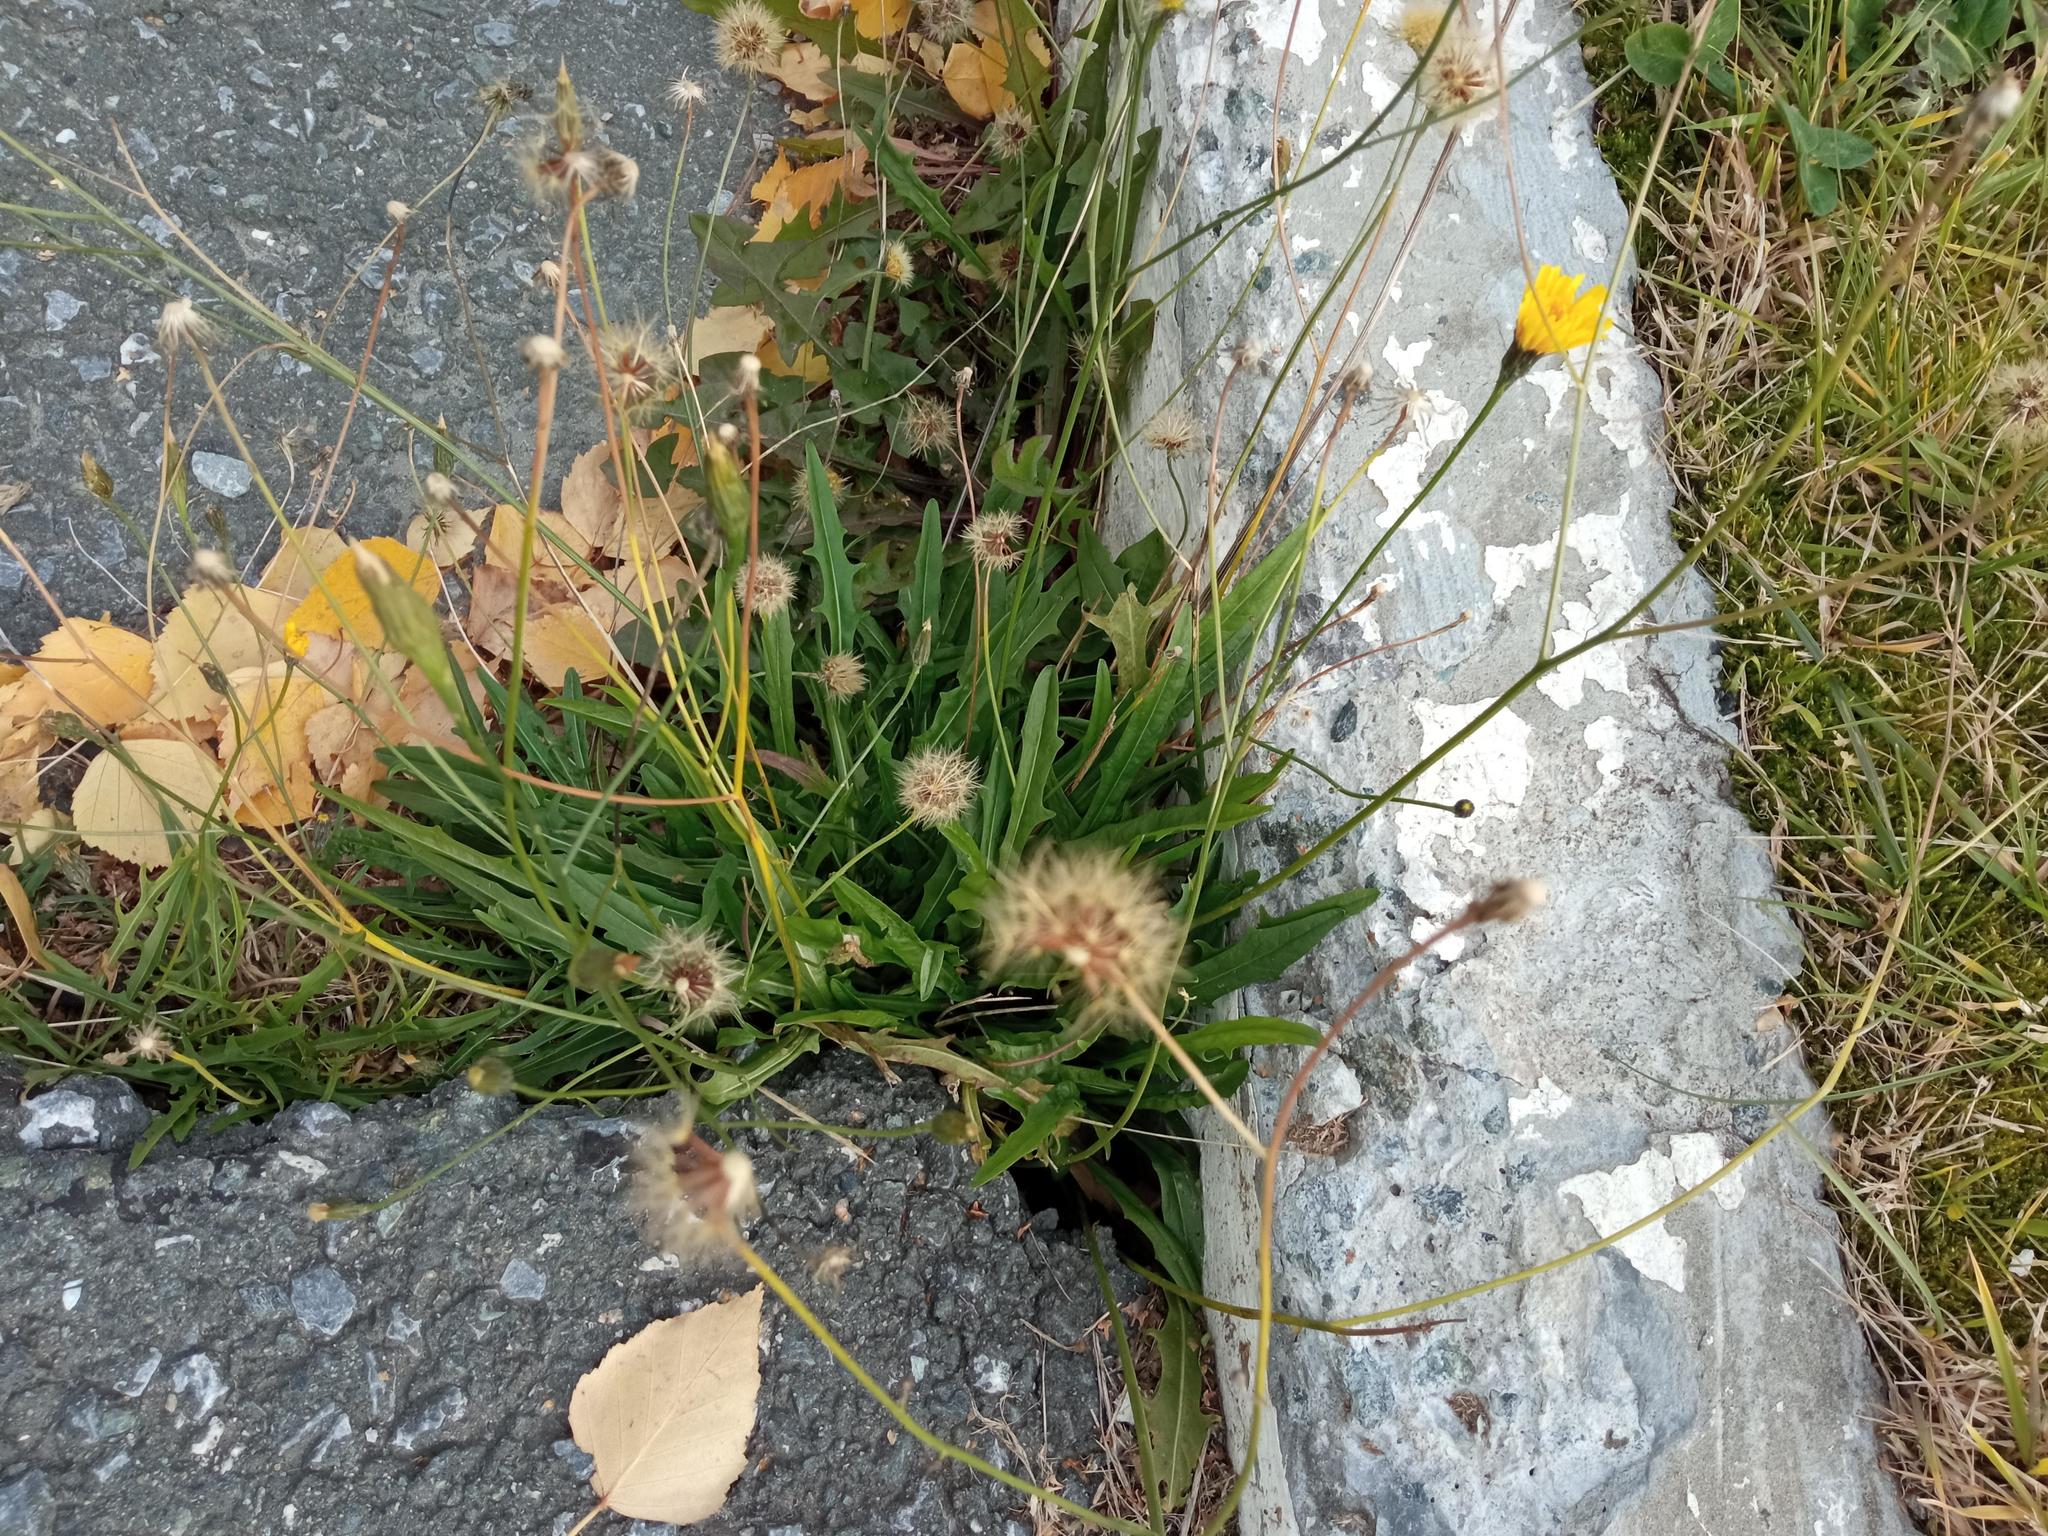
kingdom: Plantae
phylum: Tracheophyta
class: Magnoliopsida
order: Asterales
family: Asteraceae
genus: Scorzoneroides
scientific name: Scorzoneroides autumnalis
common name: Autumn hawkbit
